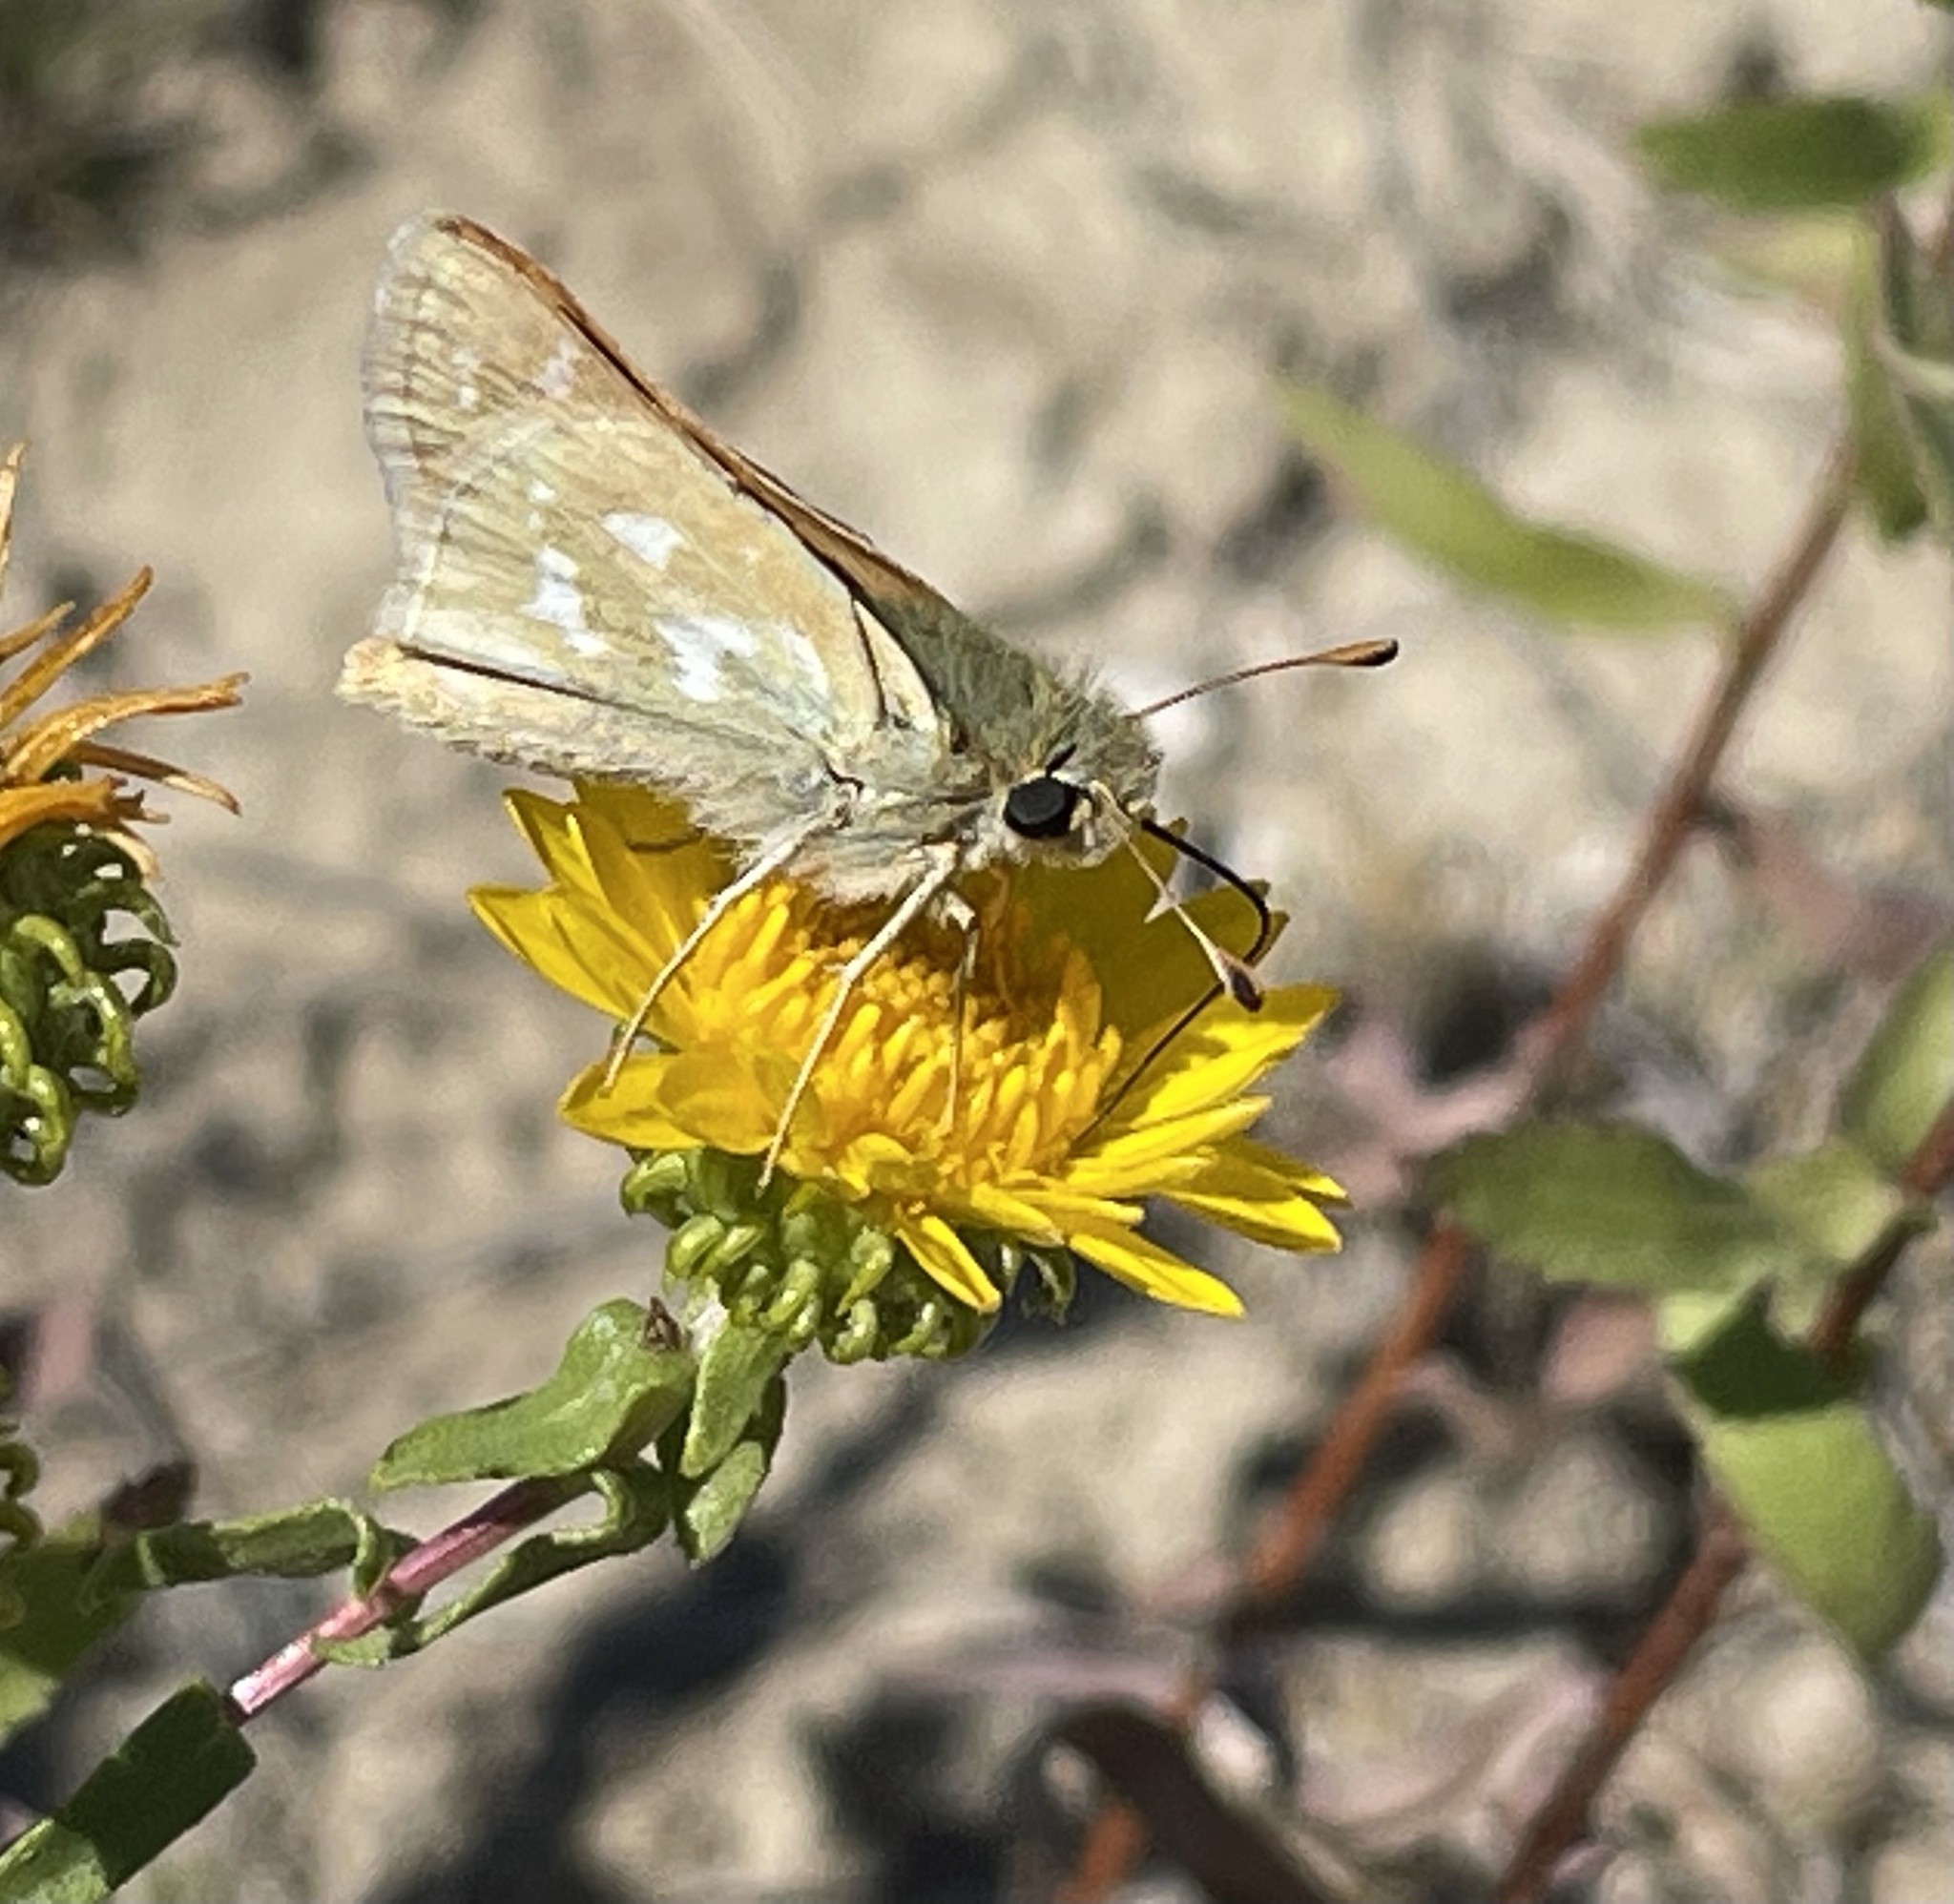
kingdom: Animalia
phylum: Arthropoda
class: Insecta
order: Lepidoptera
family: Hesperiidae
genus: Hesperia
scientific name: Hesperia comma
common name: Common branded skipper
